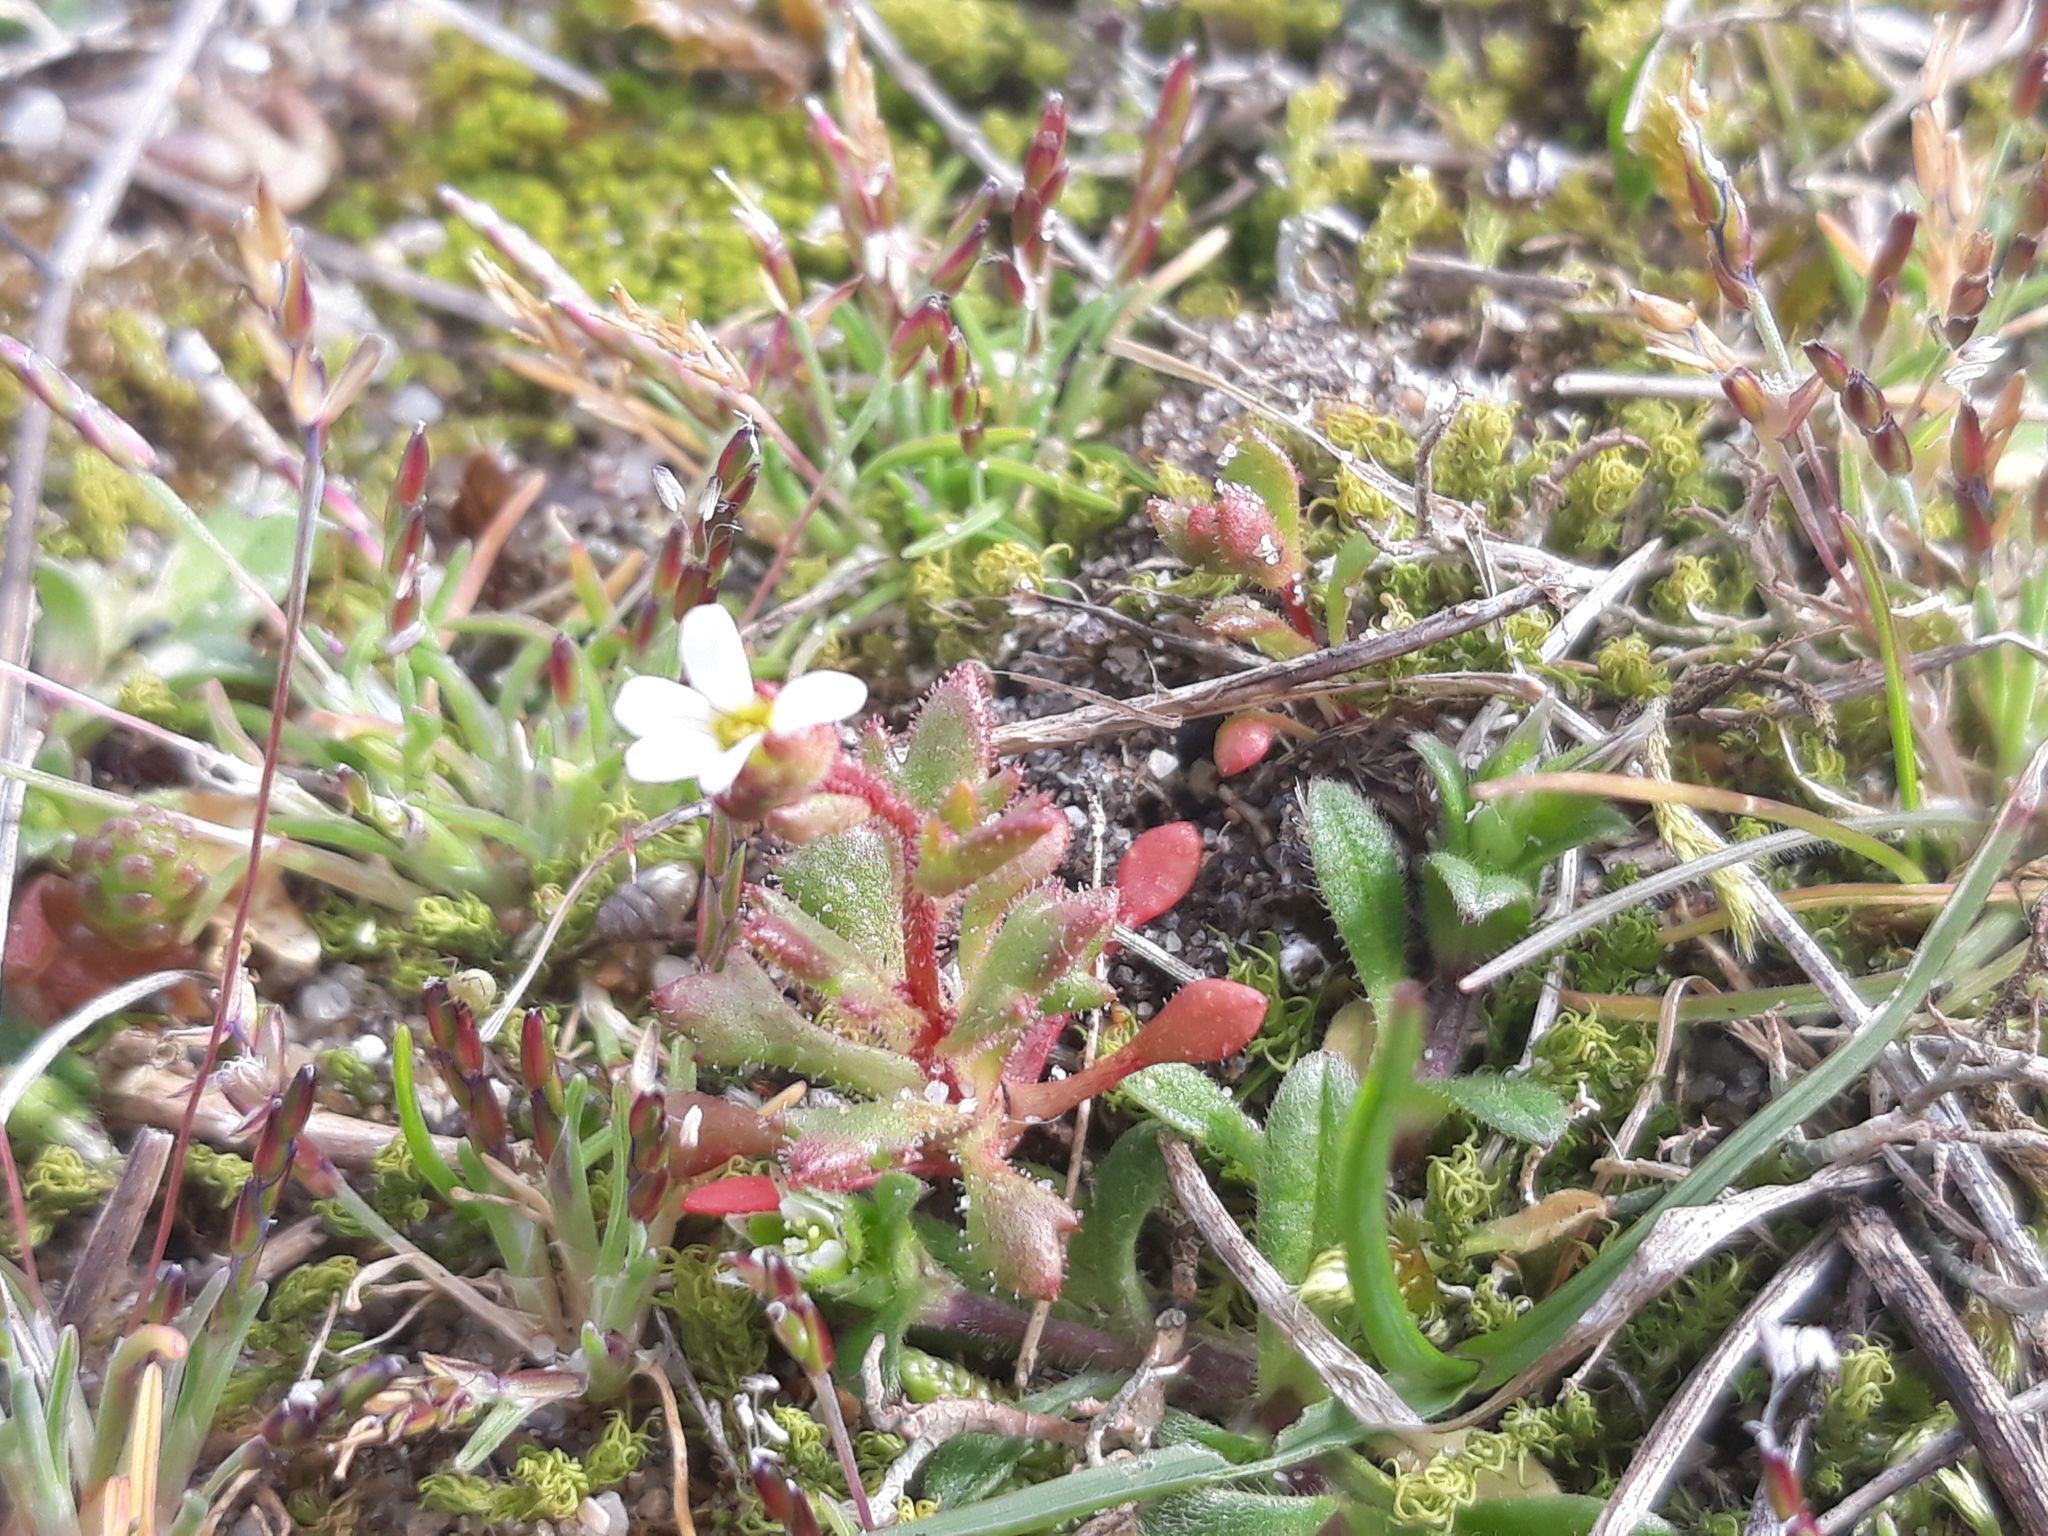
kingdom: Plantae
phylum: Tracheophyta
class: Magnoliopsida
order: Saxifragales
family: Saxifragaceae
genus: Saxifraga
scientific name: Saxifraga tridactylites
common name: Rue-leaved saxifrage
